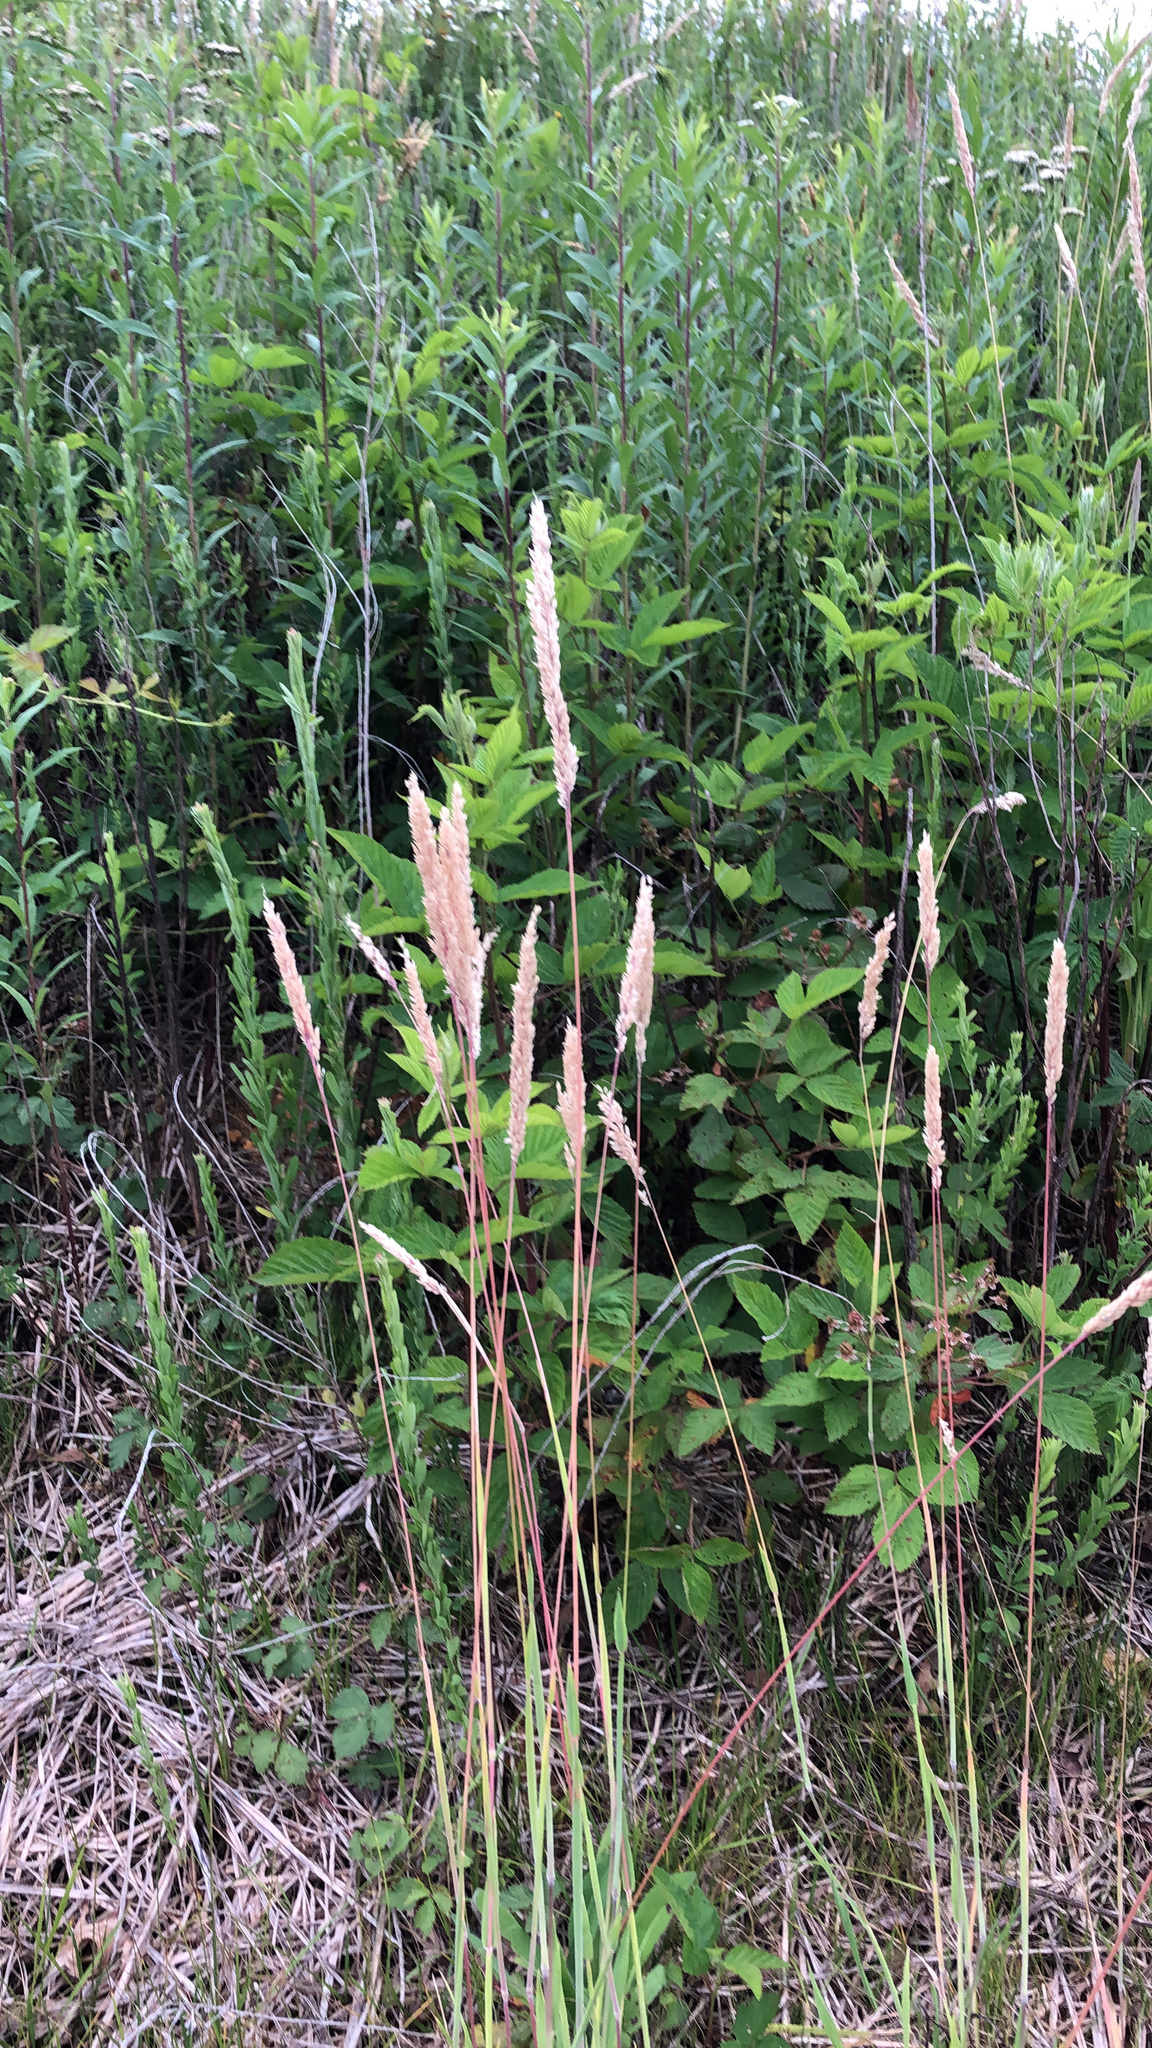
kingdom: Plantae
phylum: Tracheophyta
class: Liliopsida
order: Poales
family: Poaceae
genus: Holcus
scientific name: Holcus lanatus
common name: Yorkshire-fog
